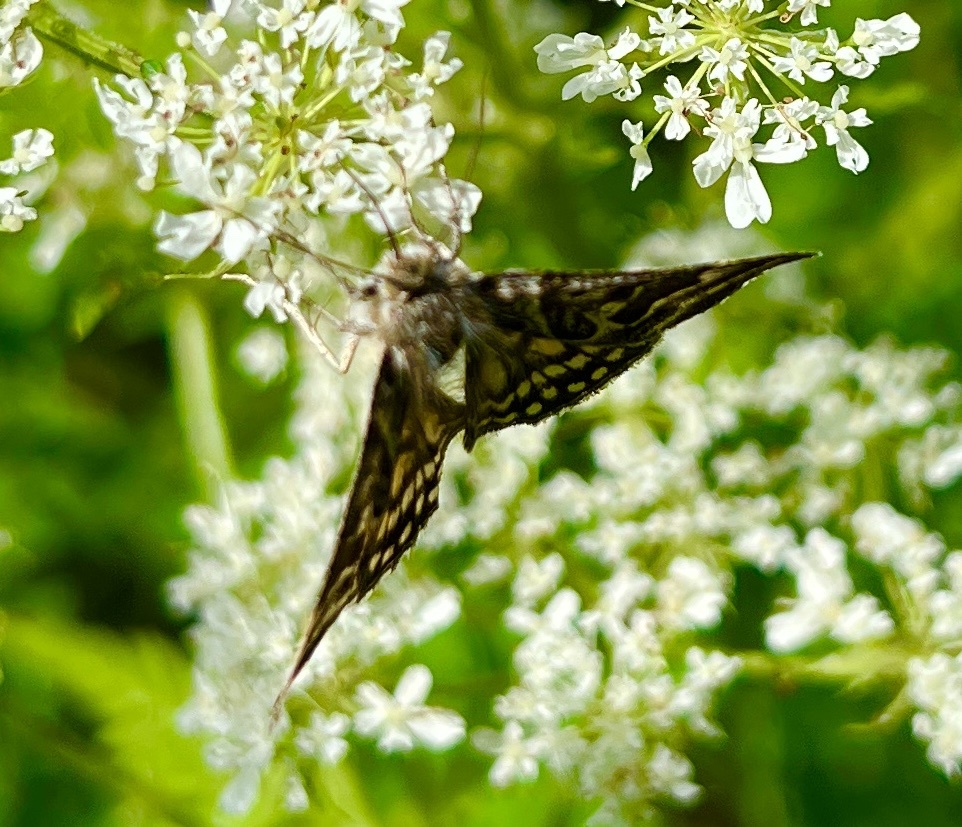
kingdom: Animalia
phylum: Arthropoda
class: Insecta
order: Lepidoptera
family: Erebidae
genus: Callistege
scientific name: Callistege mi
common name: Mother shipton
